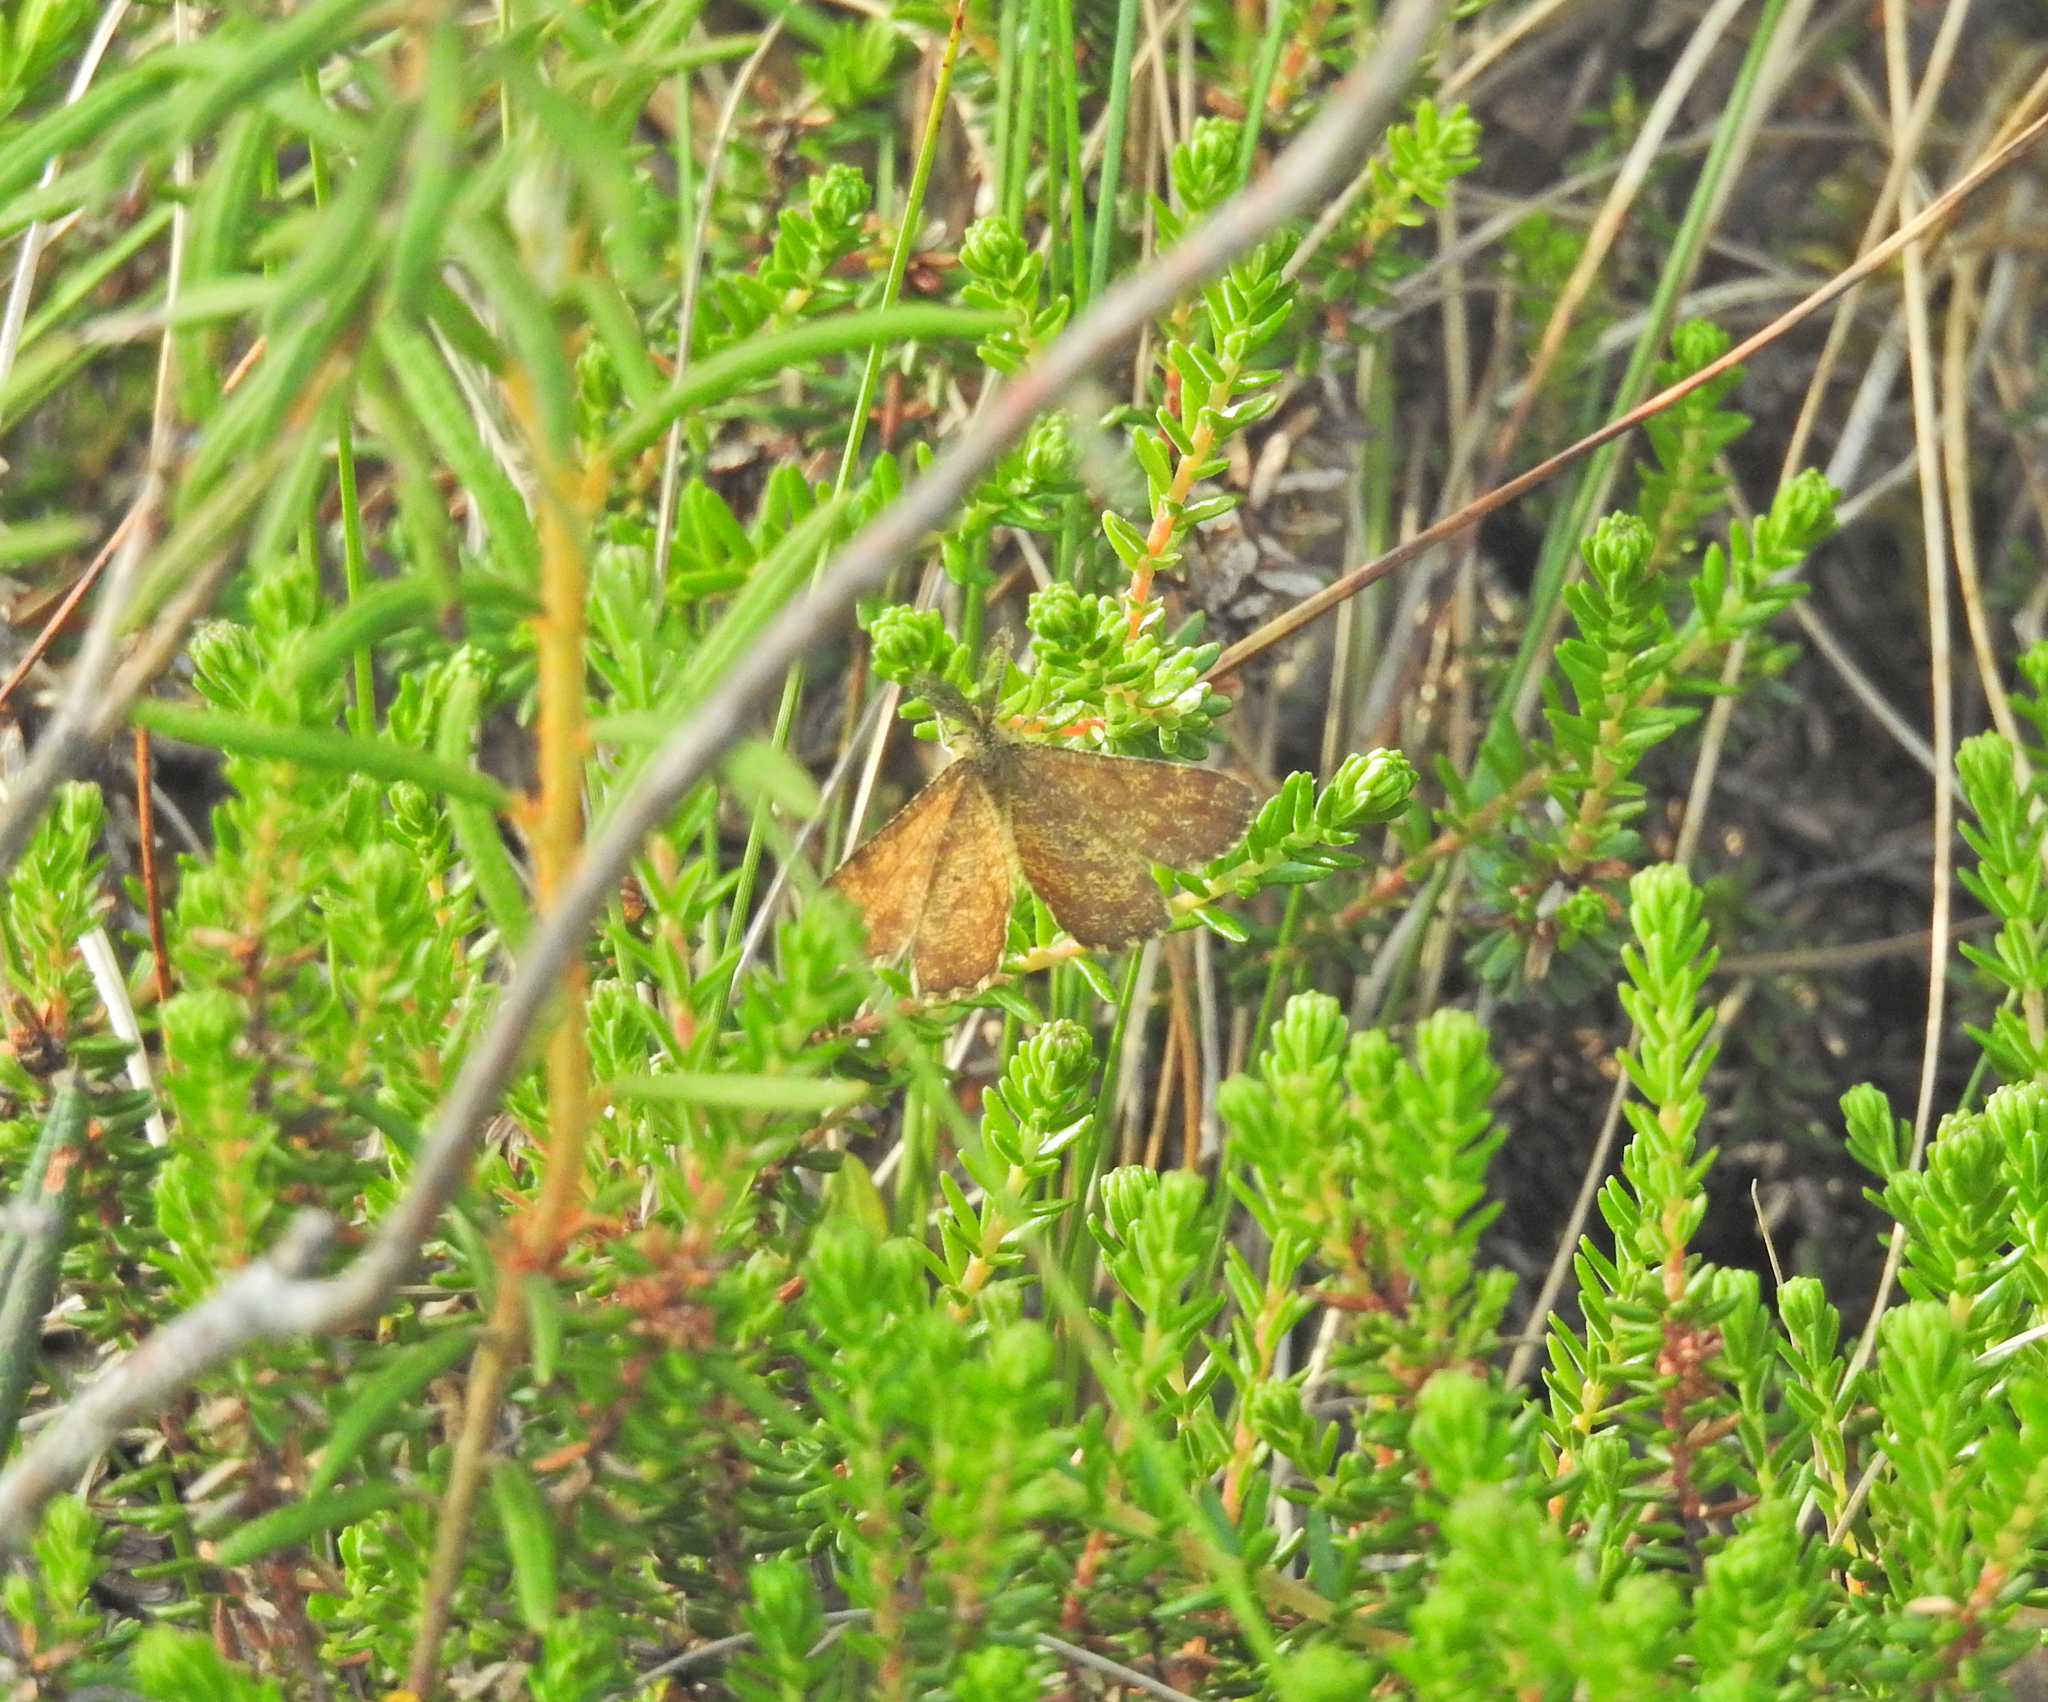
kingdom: Animalia
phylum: Arthropoda
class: Insecta
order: Lepidoptera
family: Geometridae
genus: Ematurga
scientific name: Ematurga atomaria
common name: Common heath
